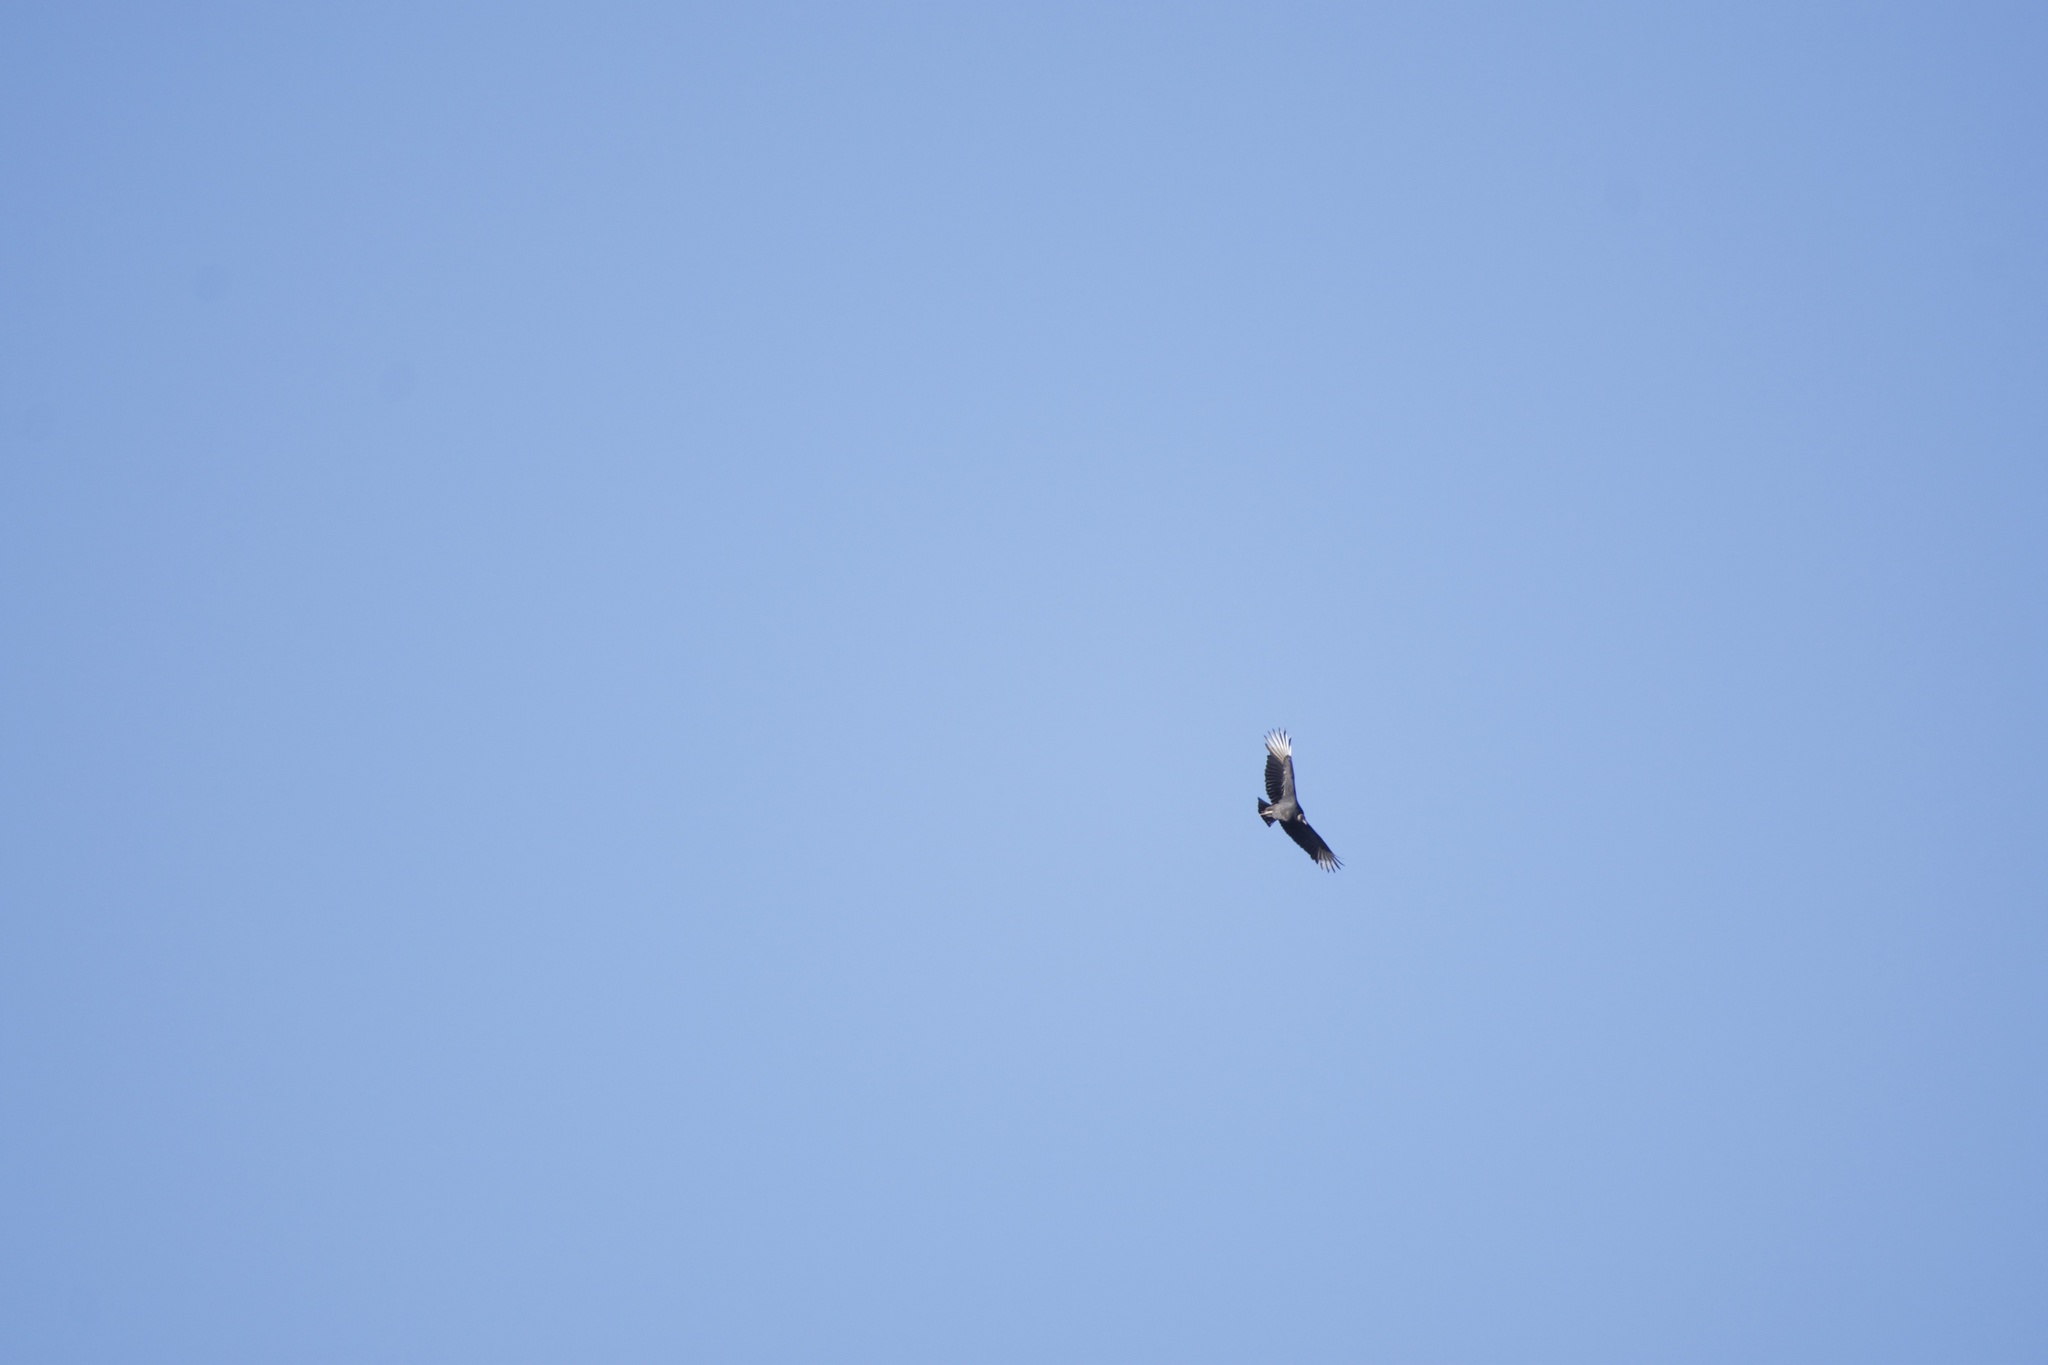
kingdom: Animalia
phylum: Chordata
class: Aves
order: Accipitriformes
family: Cathartidae
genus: Coragyps
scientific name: Coragyps atratus
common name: Black vulture
